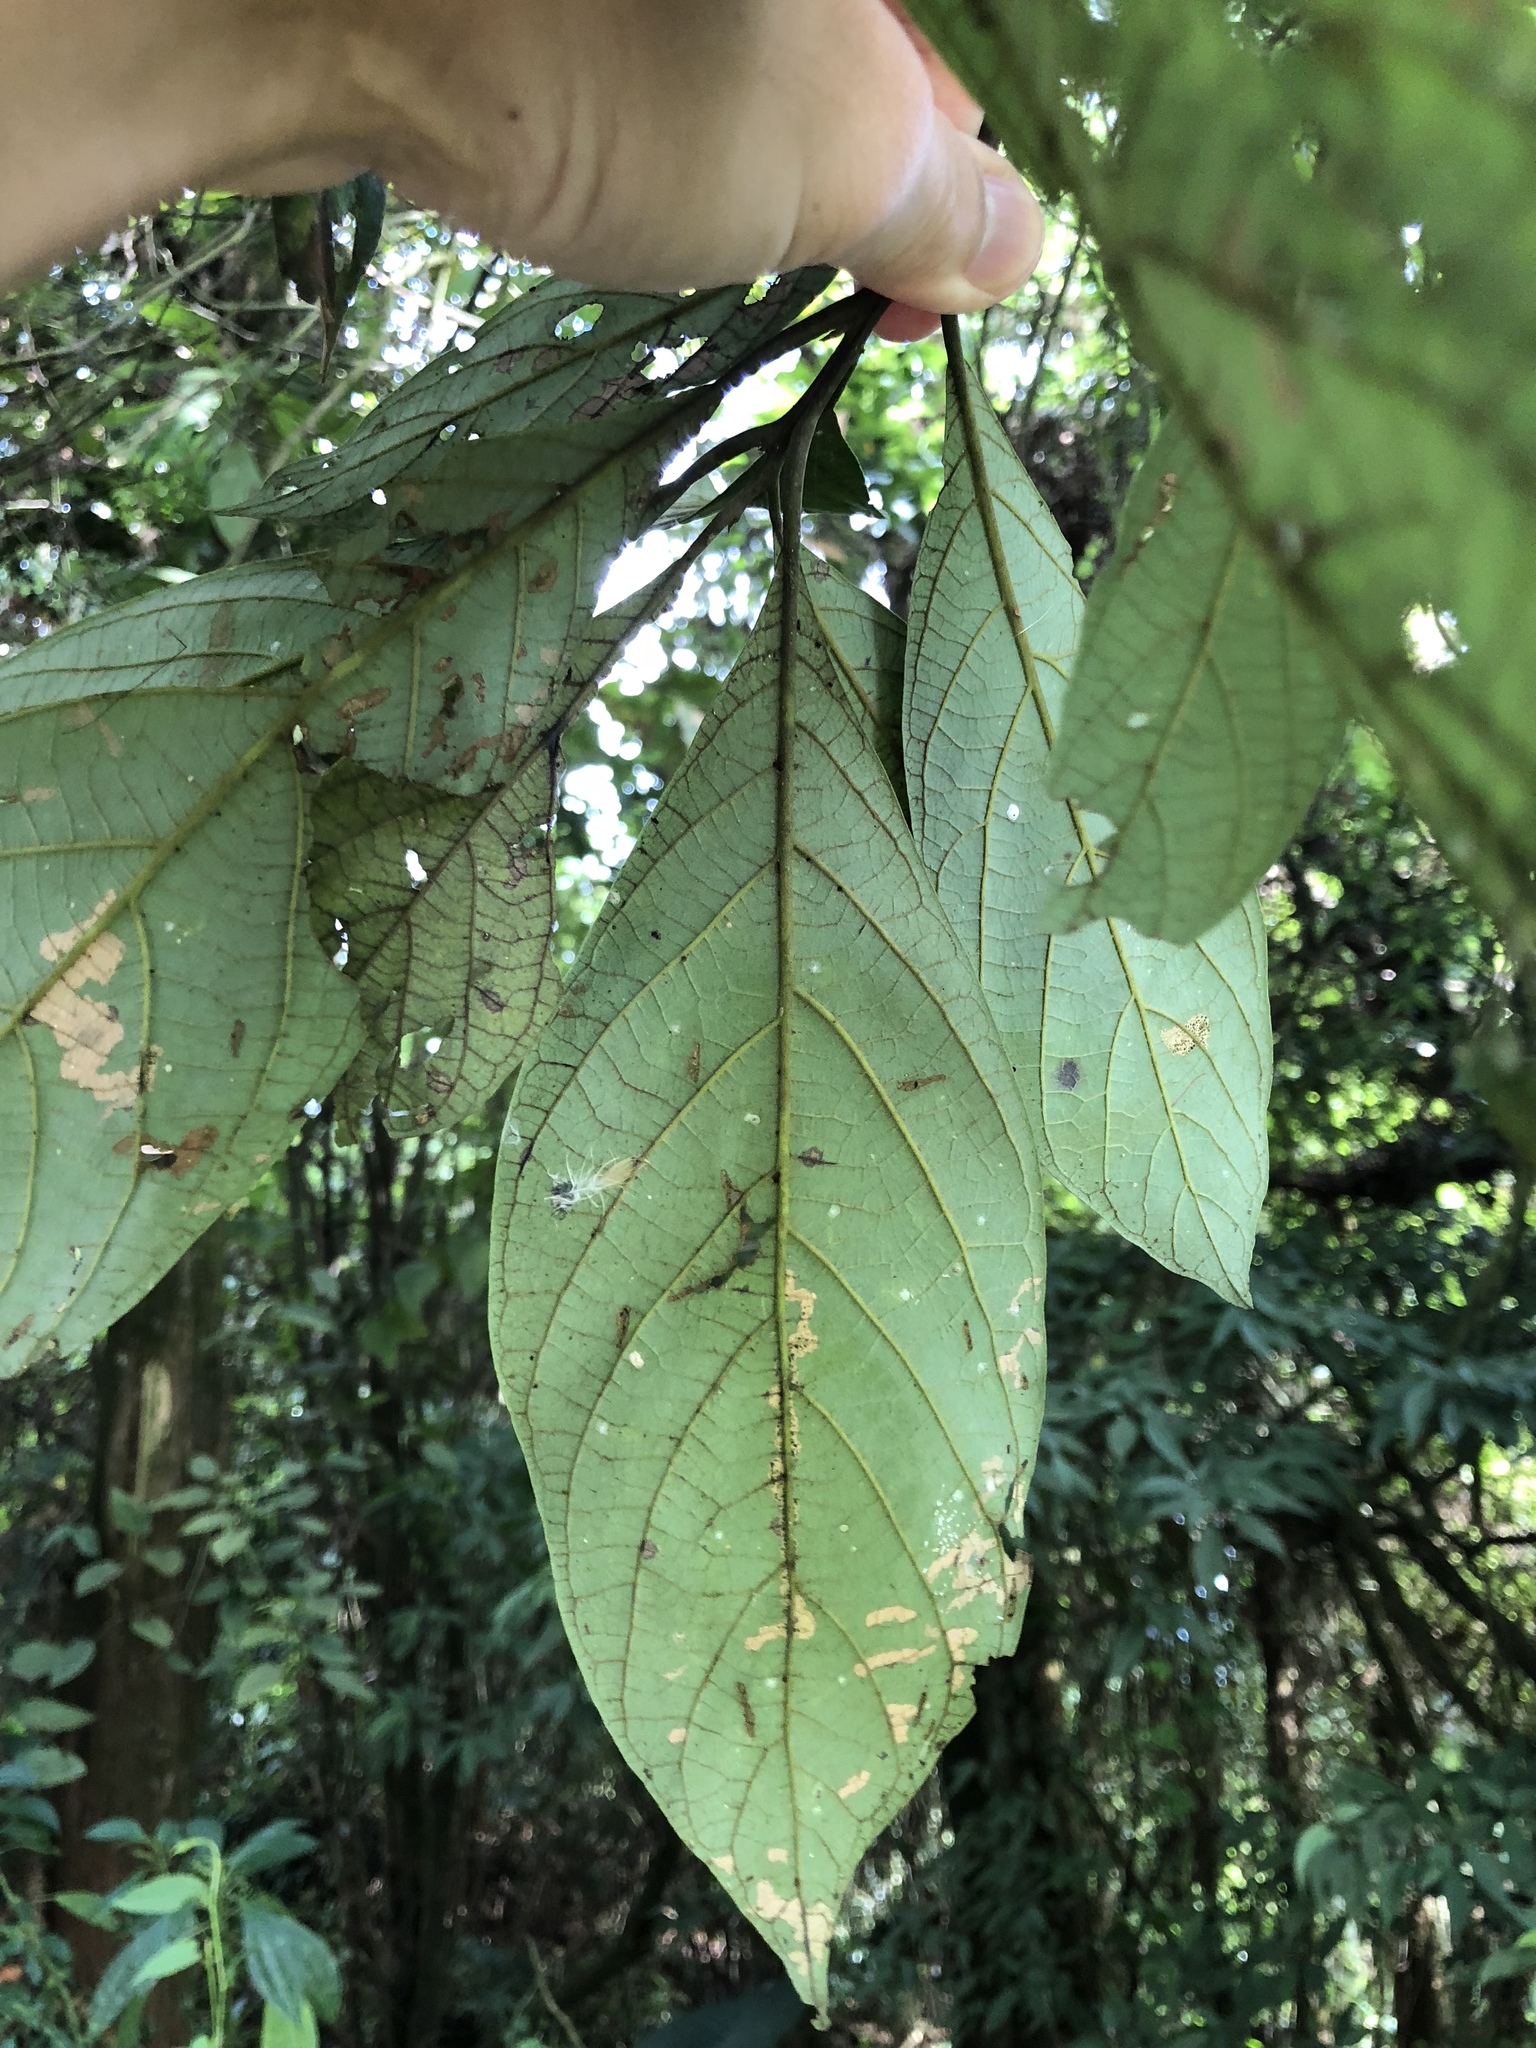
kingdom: Plantae
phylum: Tracheophyta
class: Magnoliopsida
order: Laurales
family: Lauraceae
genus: Litsea
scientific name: Litsea akoensis
